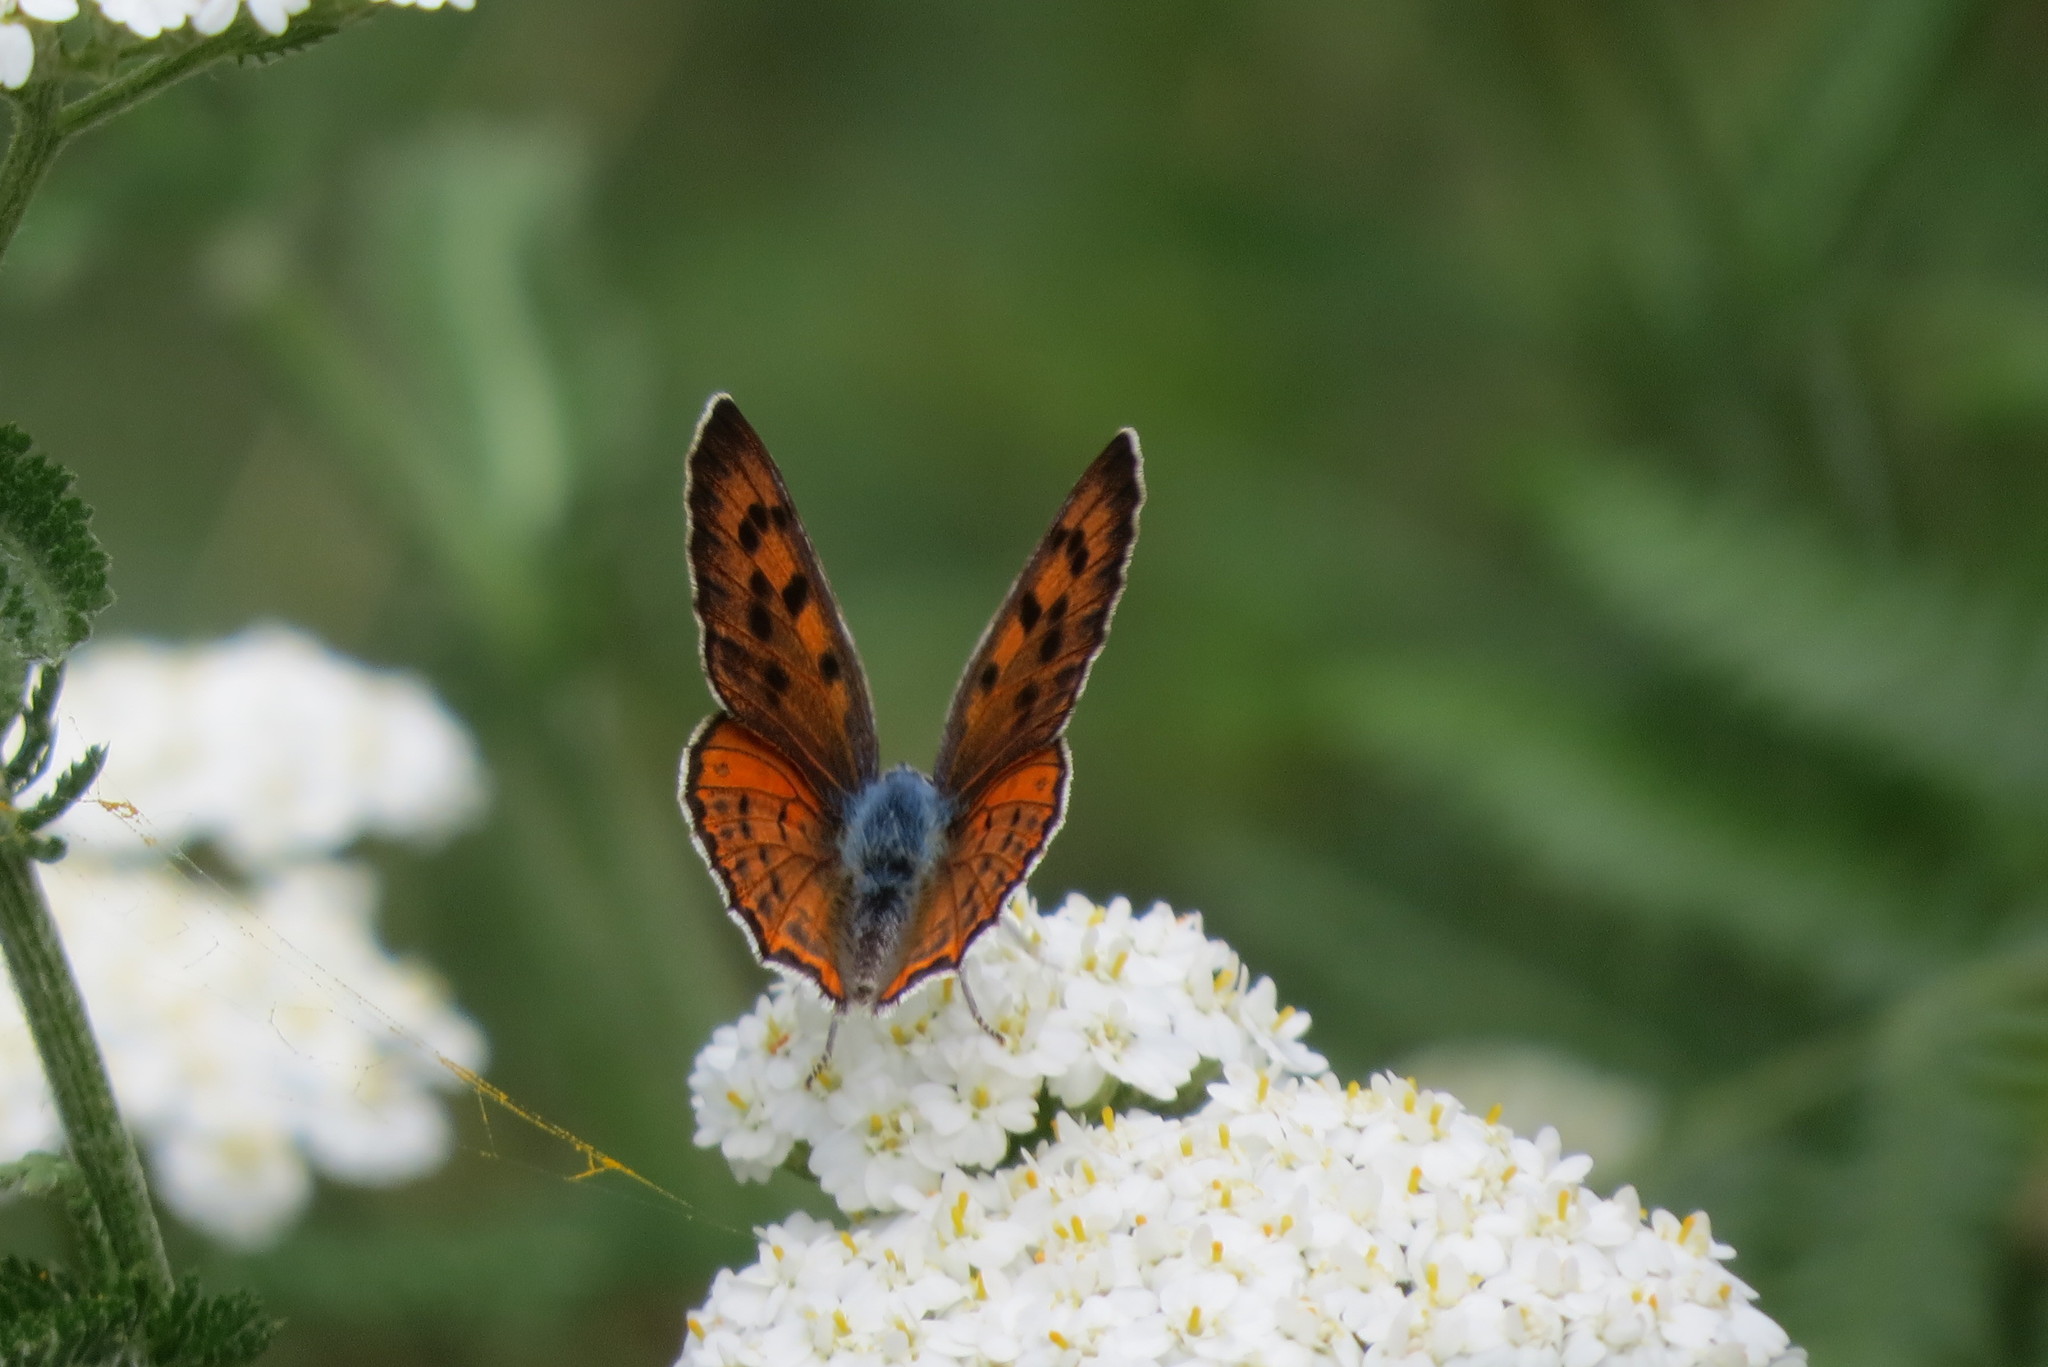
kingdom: Animalia
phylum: Arthropoda
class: Insecta
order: Lepidoptera
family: Lycaenidae
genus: Lycaena
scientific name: Lycaena alciphron
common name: Purple-shot copper
